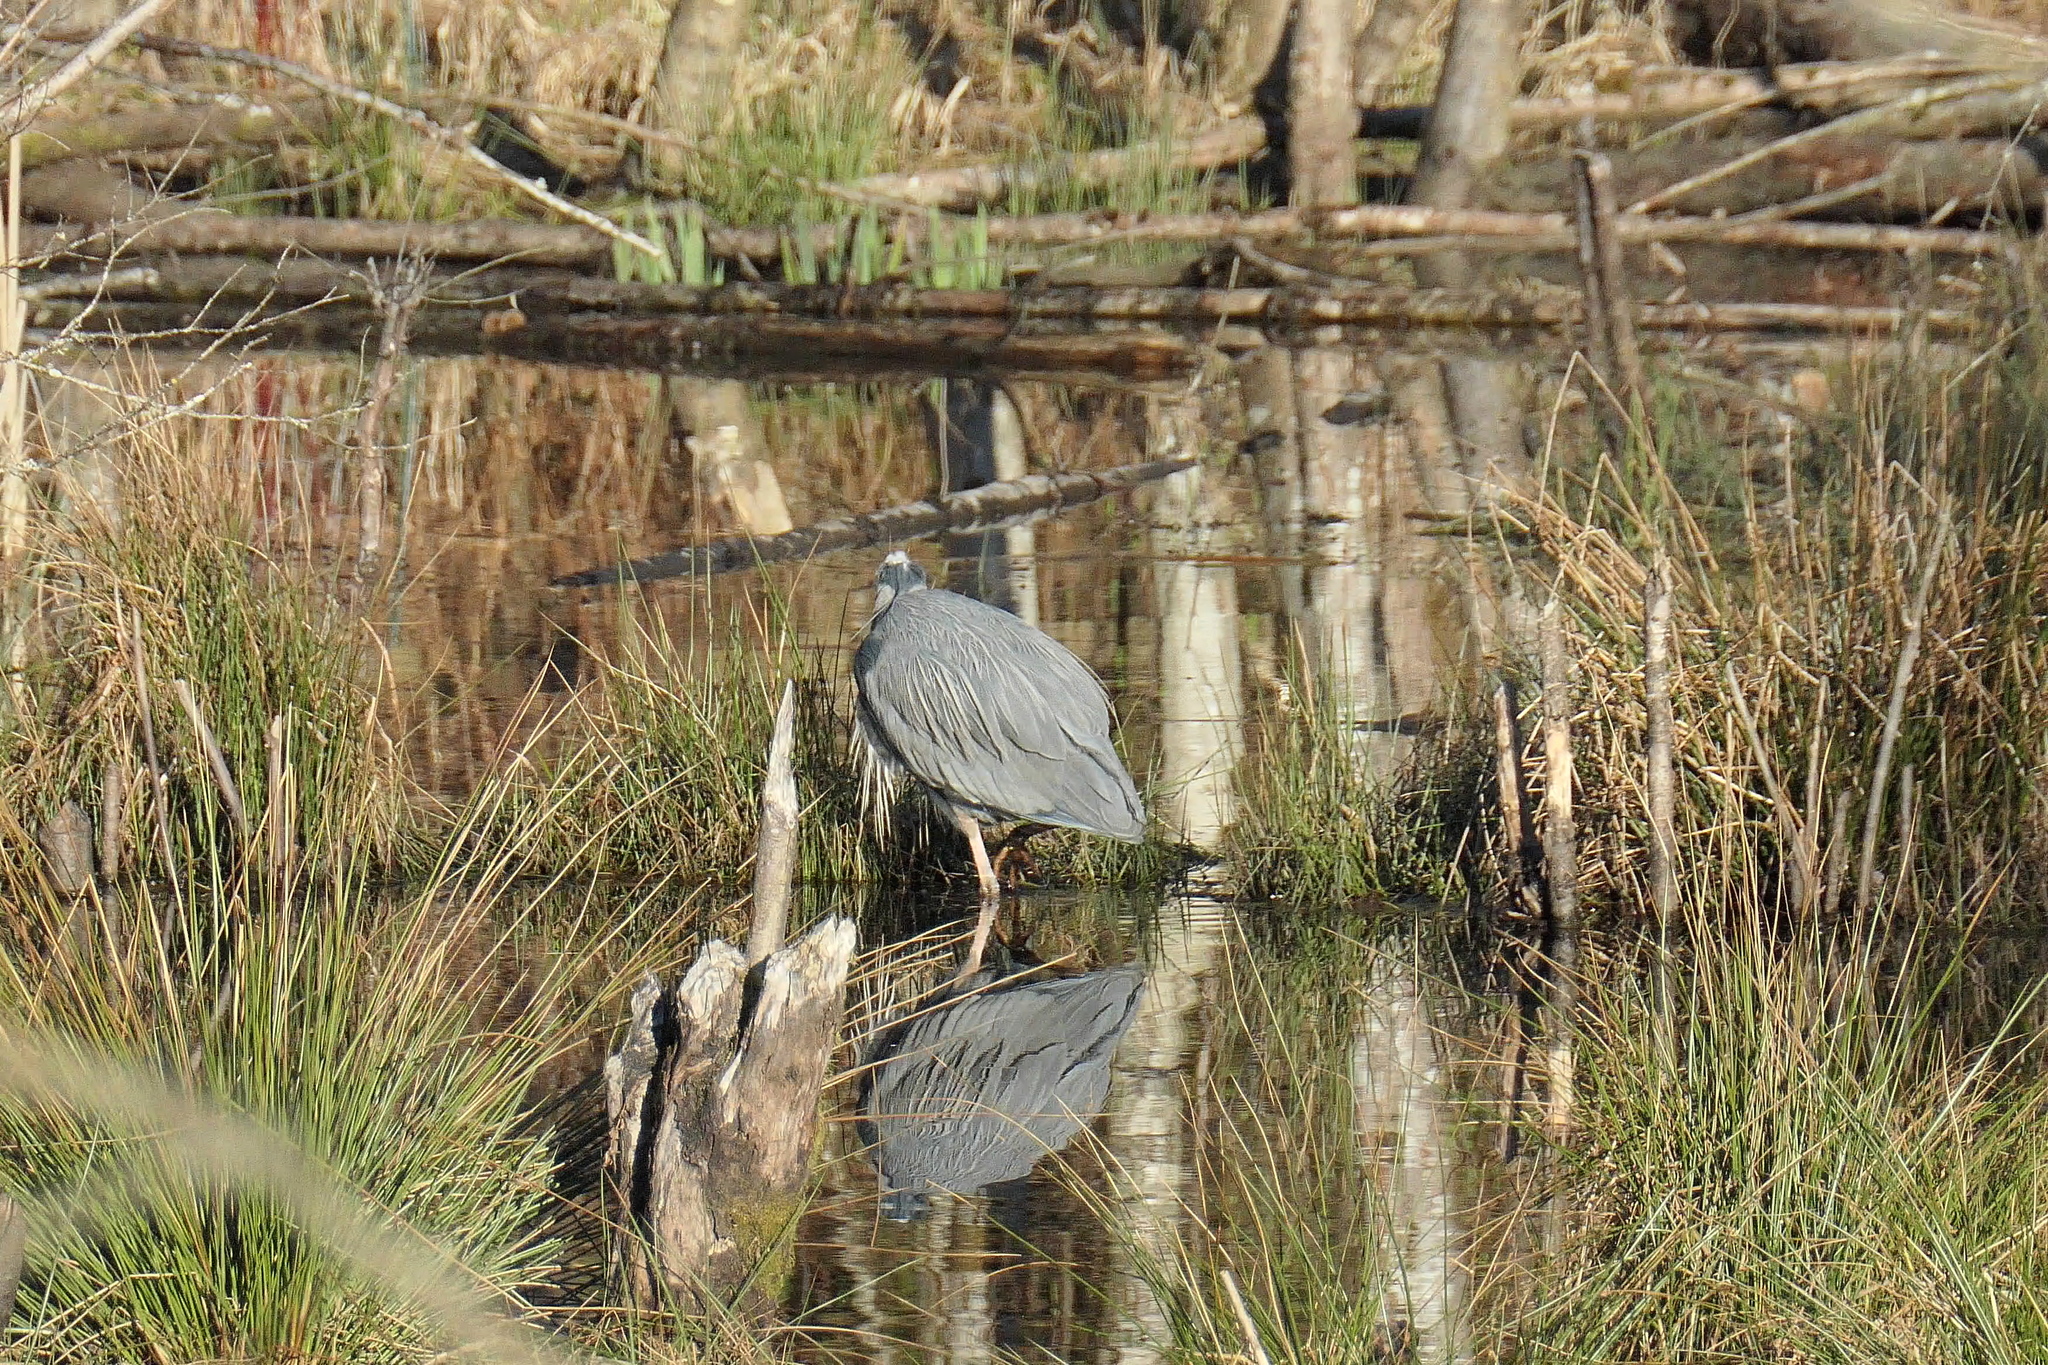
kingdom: Animalia
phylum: Chordata
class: Aves
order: Pelecaniformes
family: Ardeidae
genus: Ardea
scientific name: Ardea herodias
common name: Great blue heron
